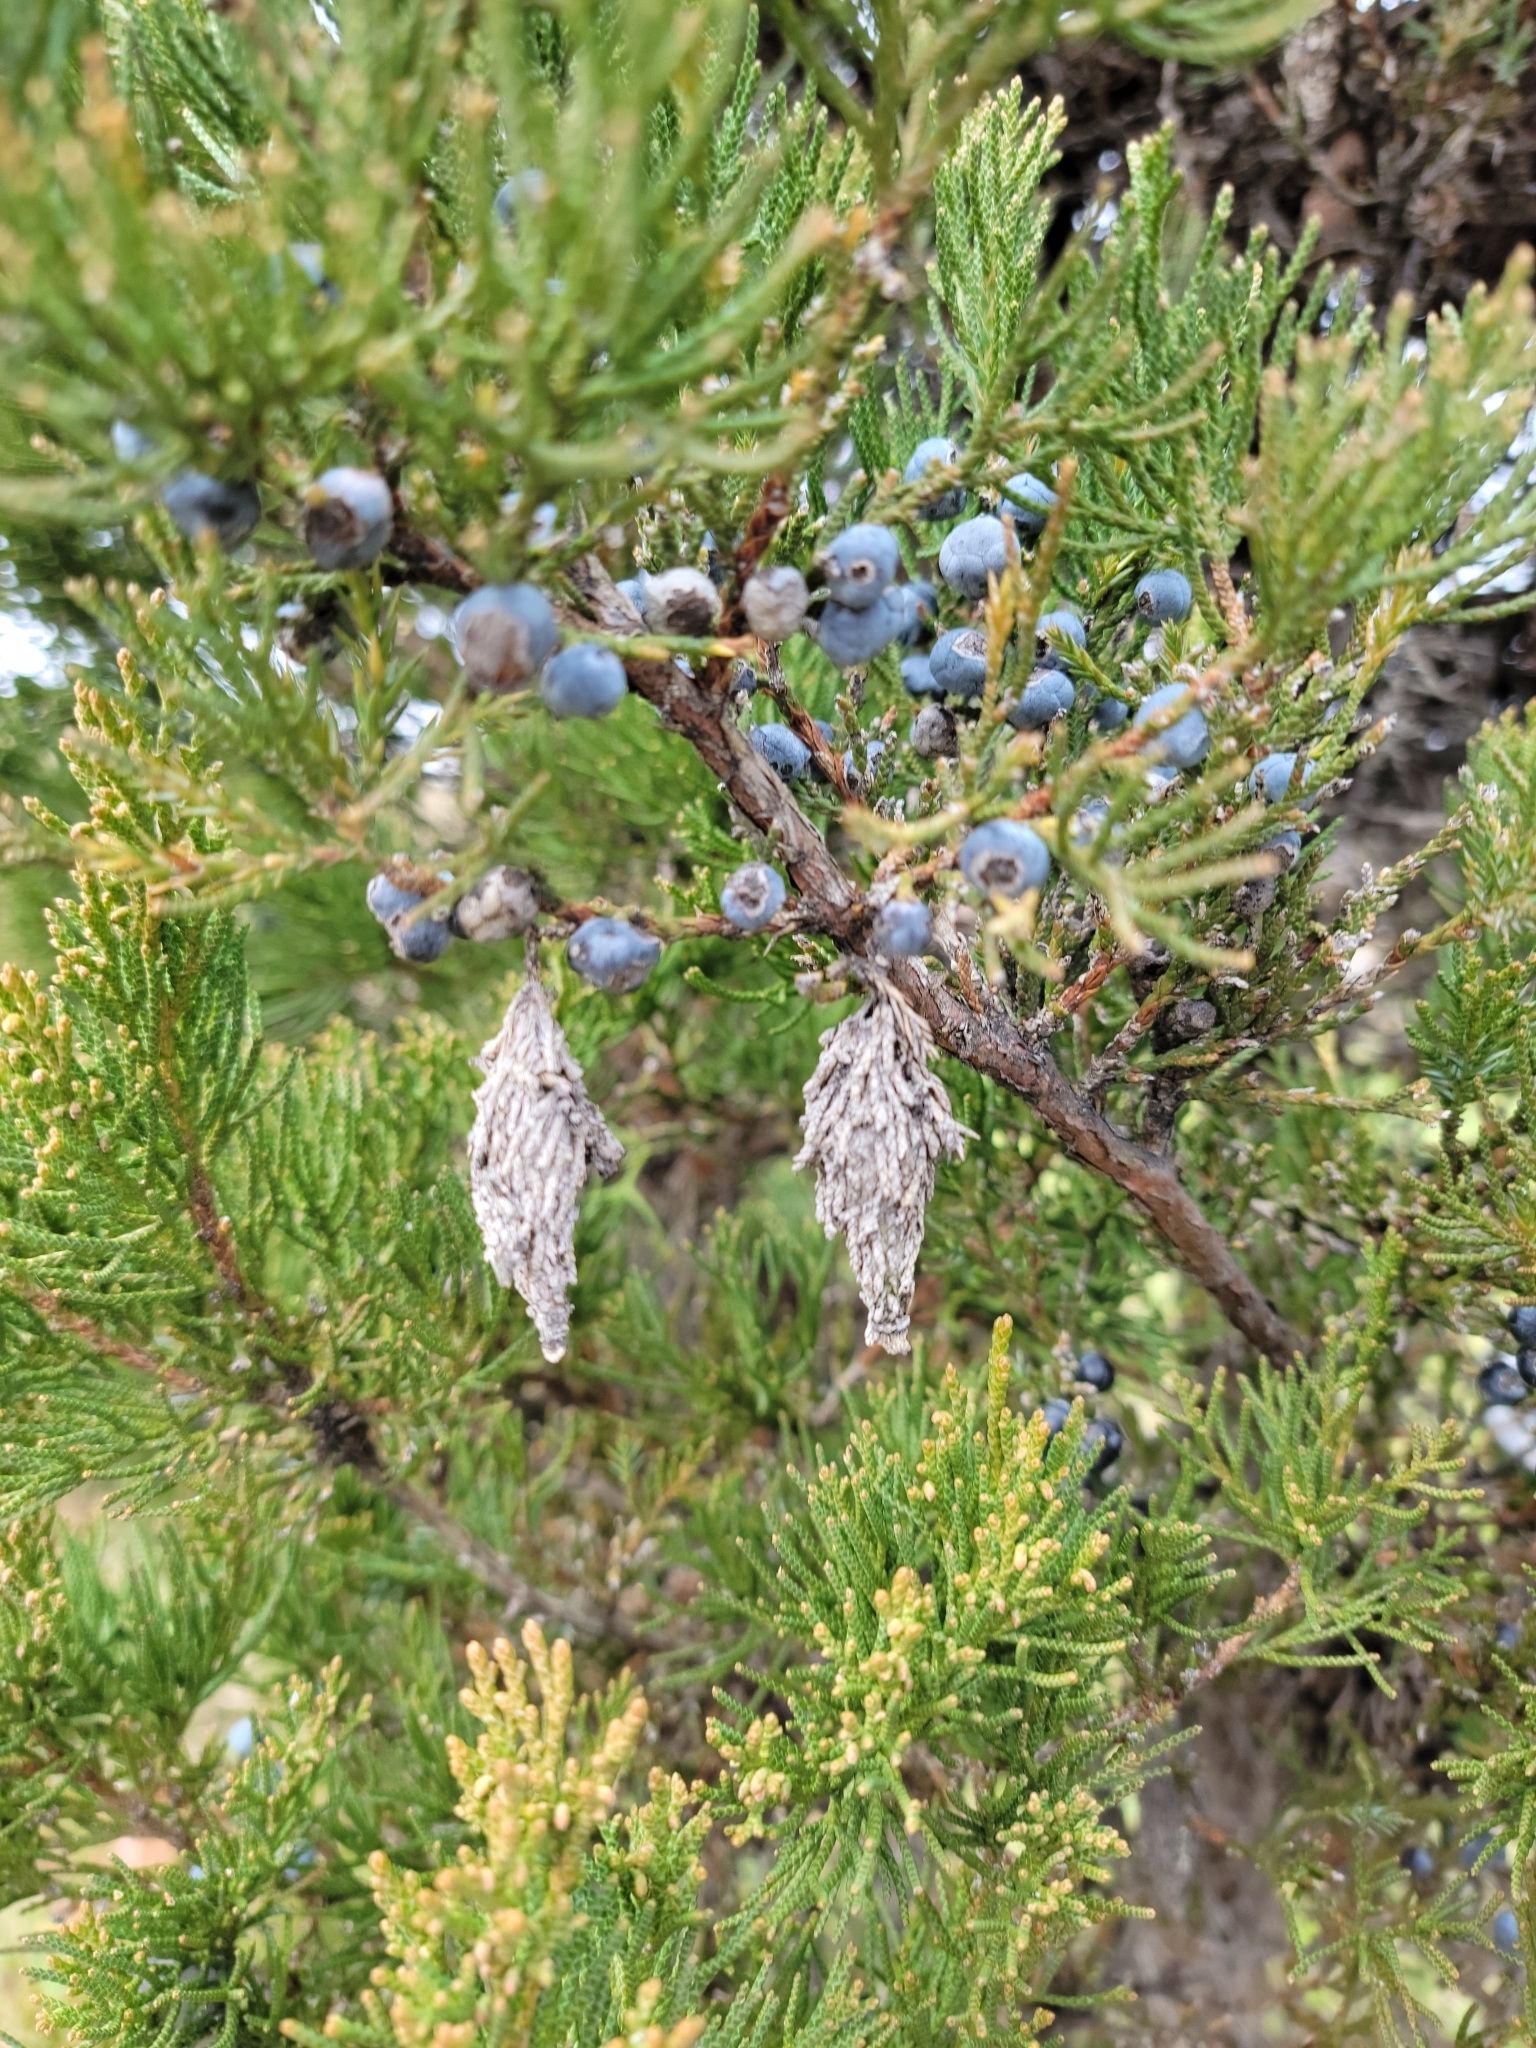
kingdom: Animalia
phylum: Arthropoda
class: Insecta
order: Lepidoptera
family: Psychidae
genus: Thyridopteryx
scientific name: Thyridopteryx ephemeraeformis
